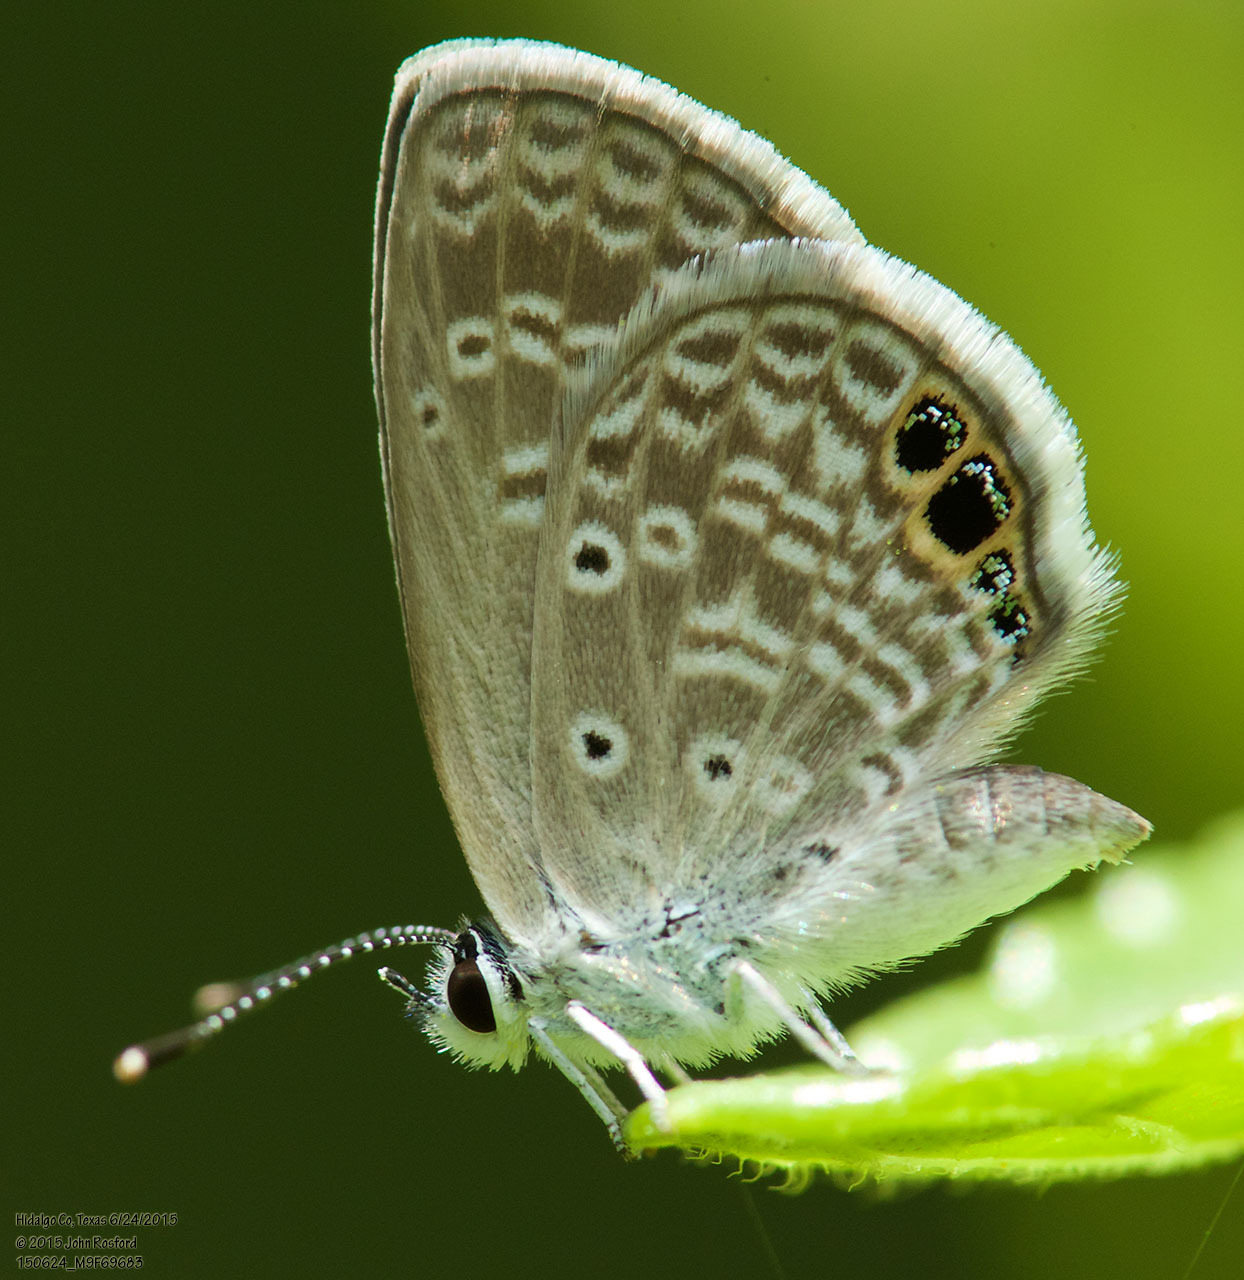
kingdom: Animalia
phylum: Arthropoda
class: Insecta
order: Lepidoptera
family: Lycaenidae
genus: Hemiargus
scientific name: Hemiargus ceraunus
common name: Ceraunus blue
